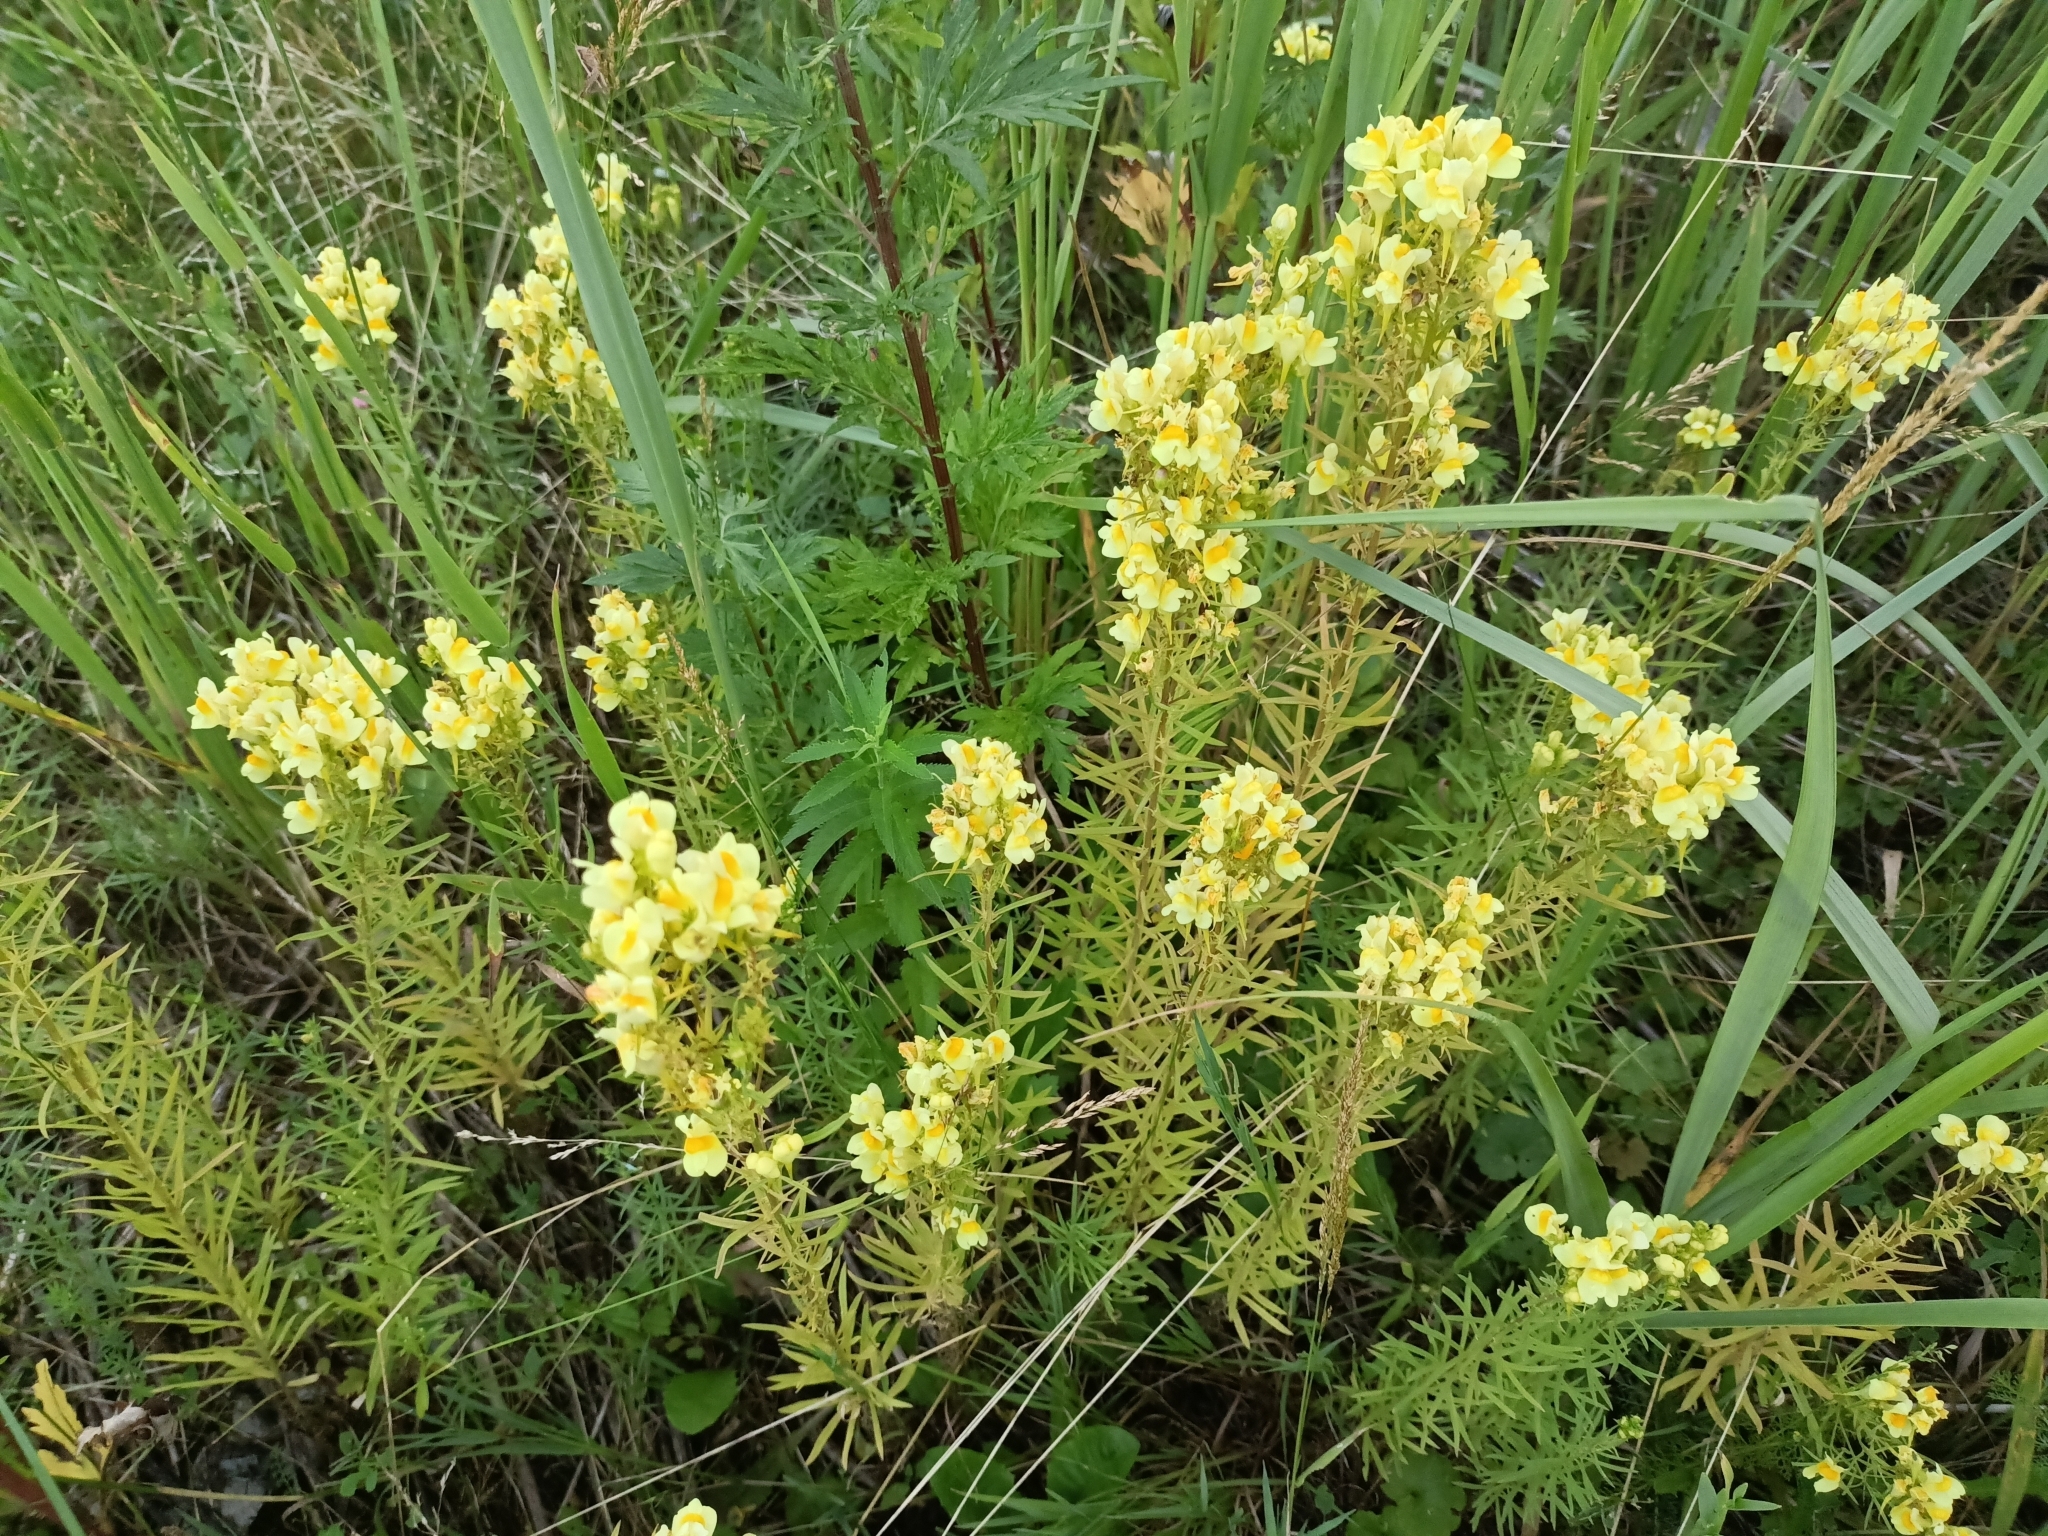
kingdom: Plantae
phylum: Tracheophyta
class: Magnoliopsida
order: Lamiales
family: Plantaginaceae
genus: Linaria
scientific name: Linaria vulgaris
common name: Butter and eggs
